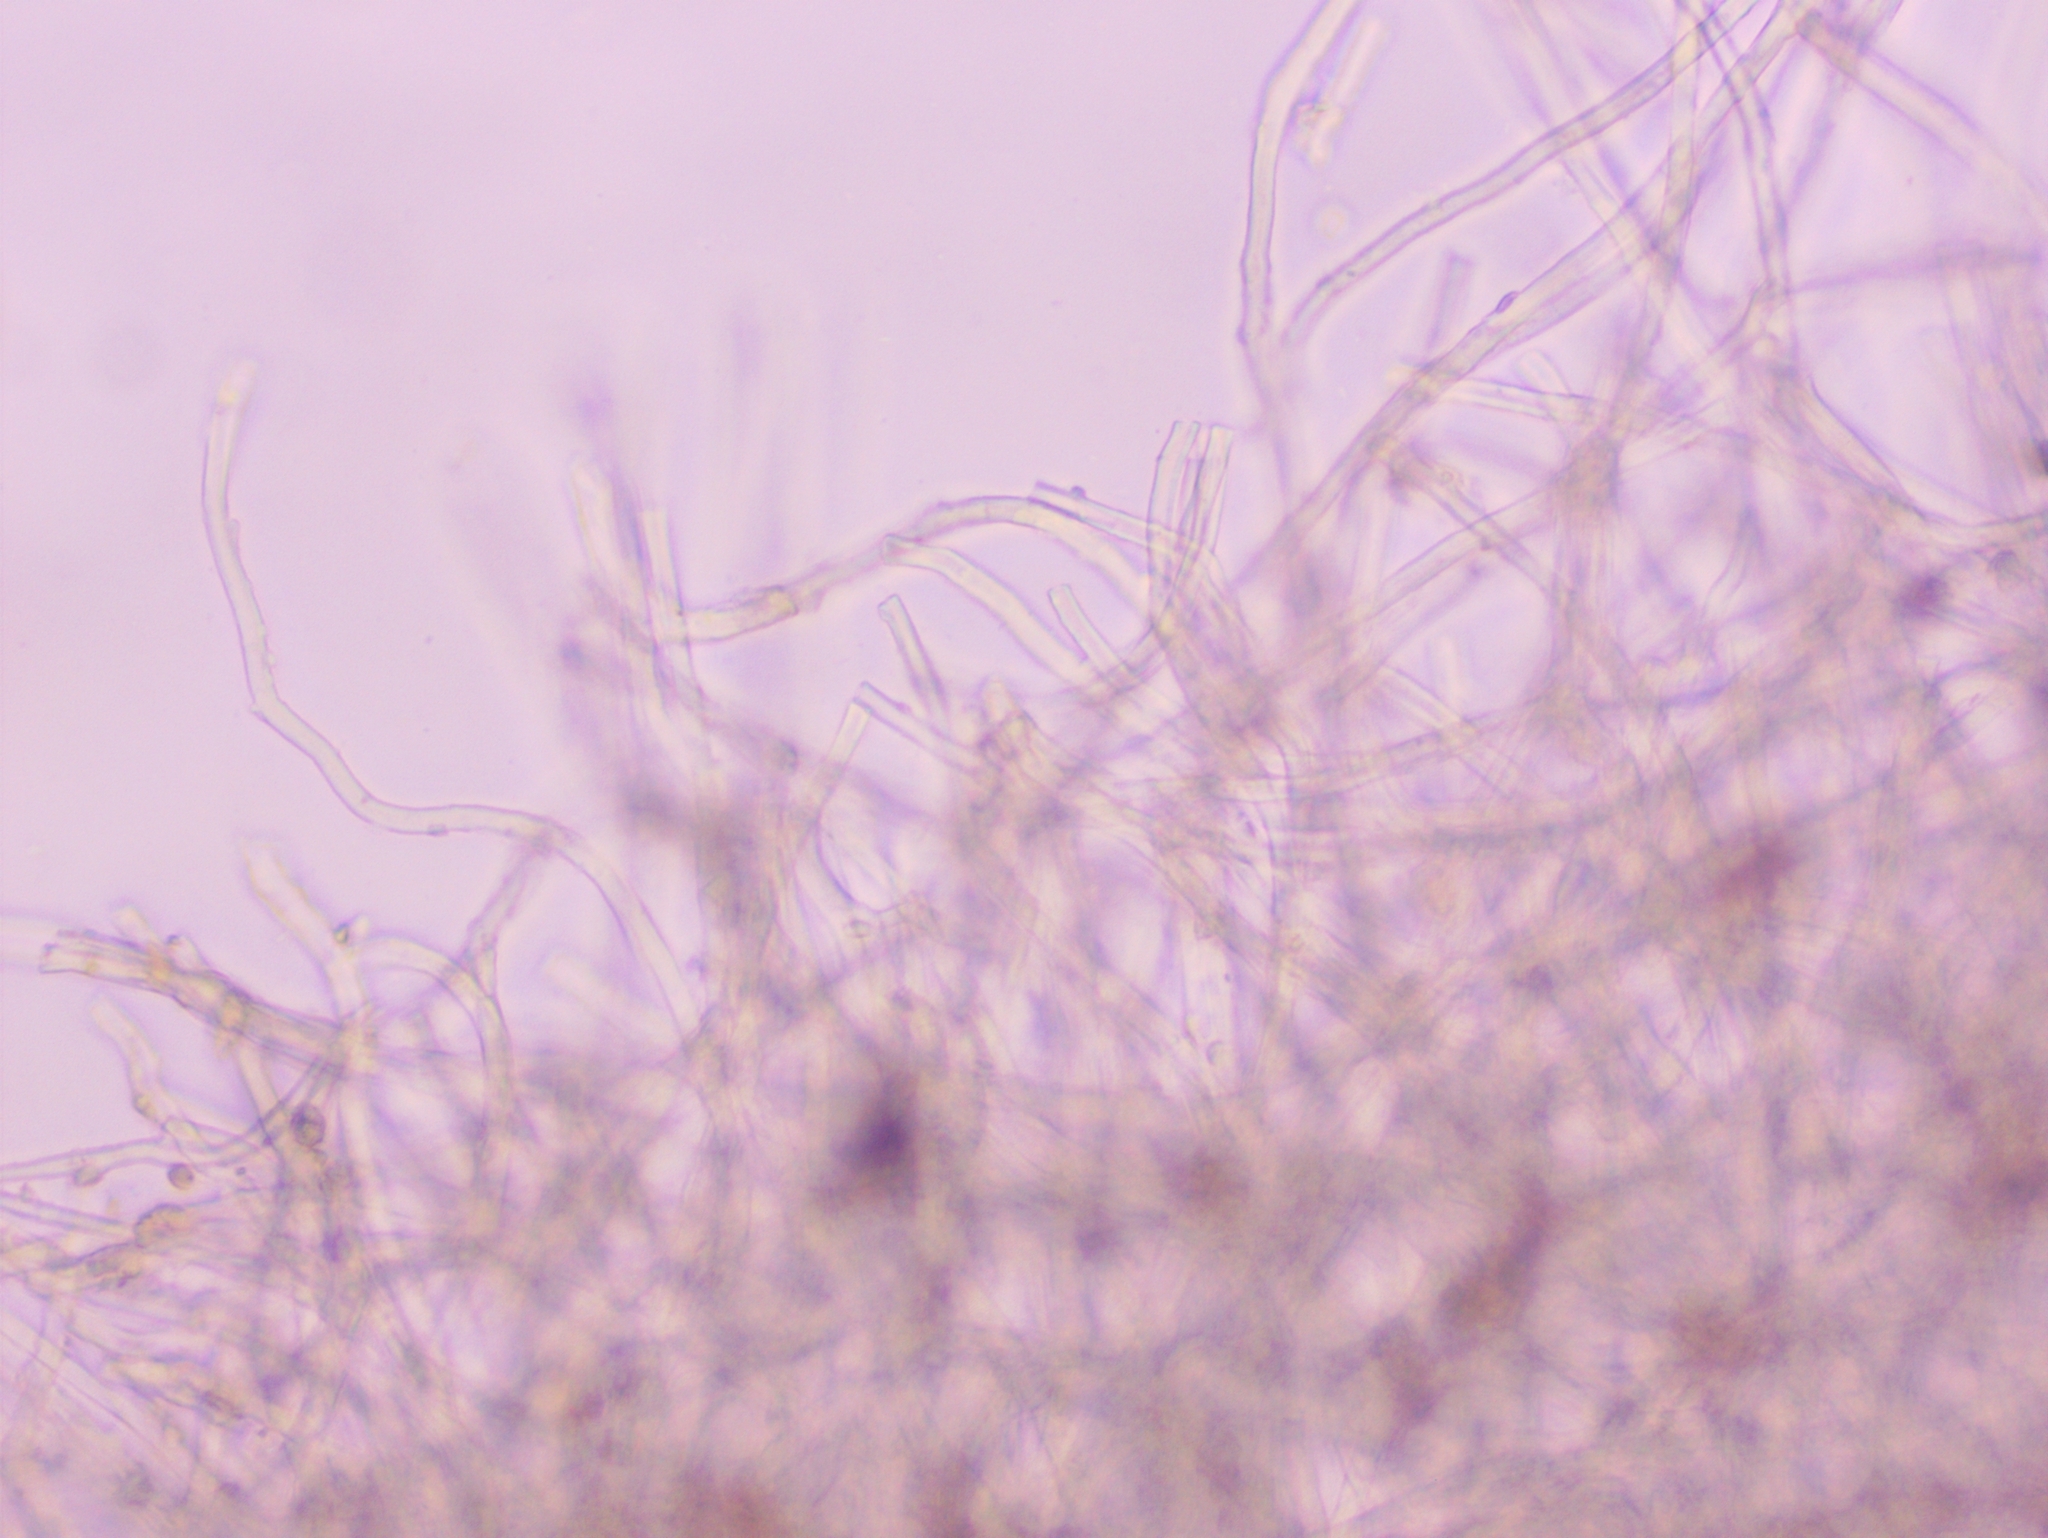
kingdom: Fungi
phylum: Ascomycota
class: Pezizomycetes
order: Pezizales
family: Sarcoscyphaceae
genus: Sarcoscypha
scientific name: Sarcoscypha jurana
